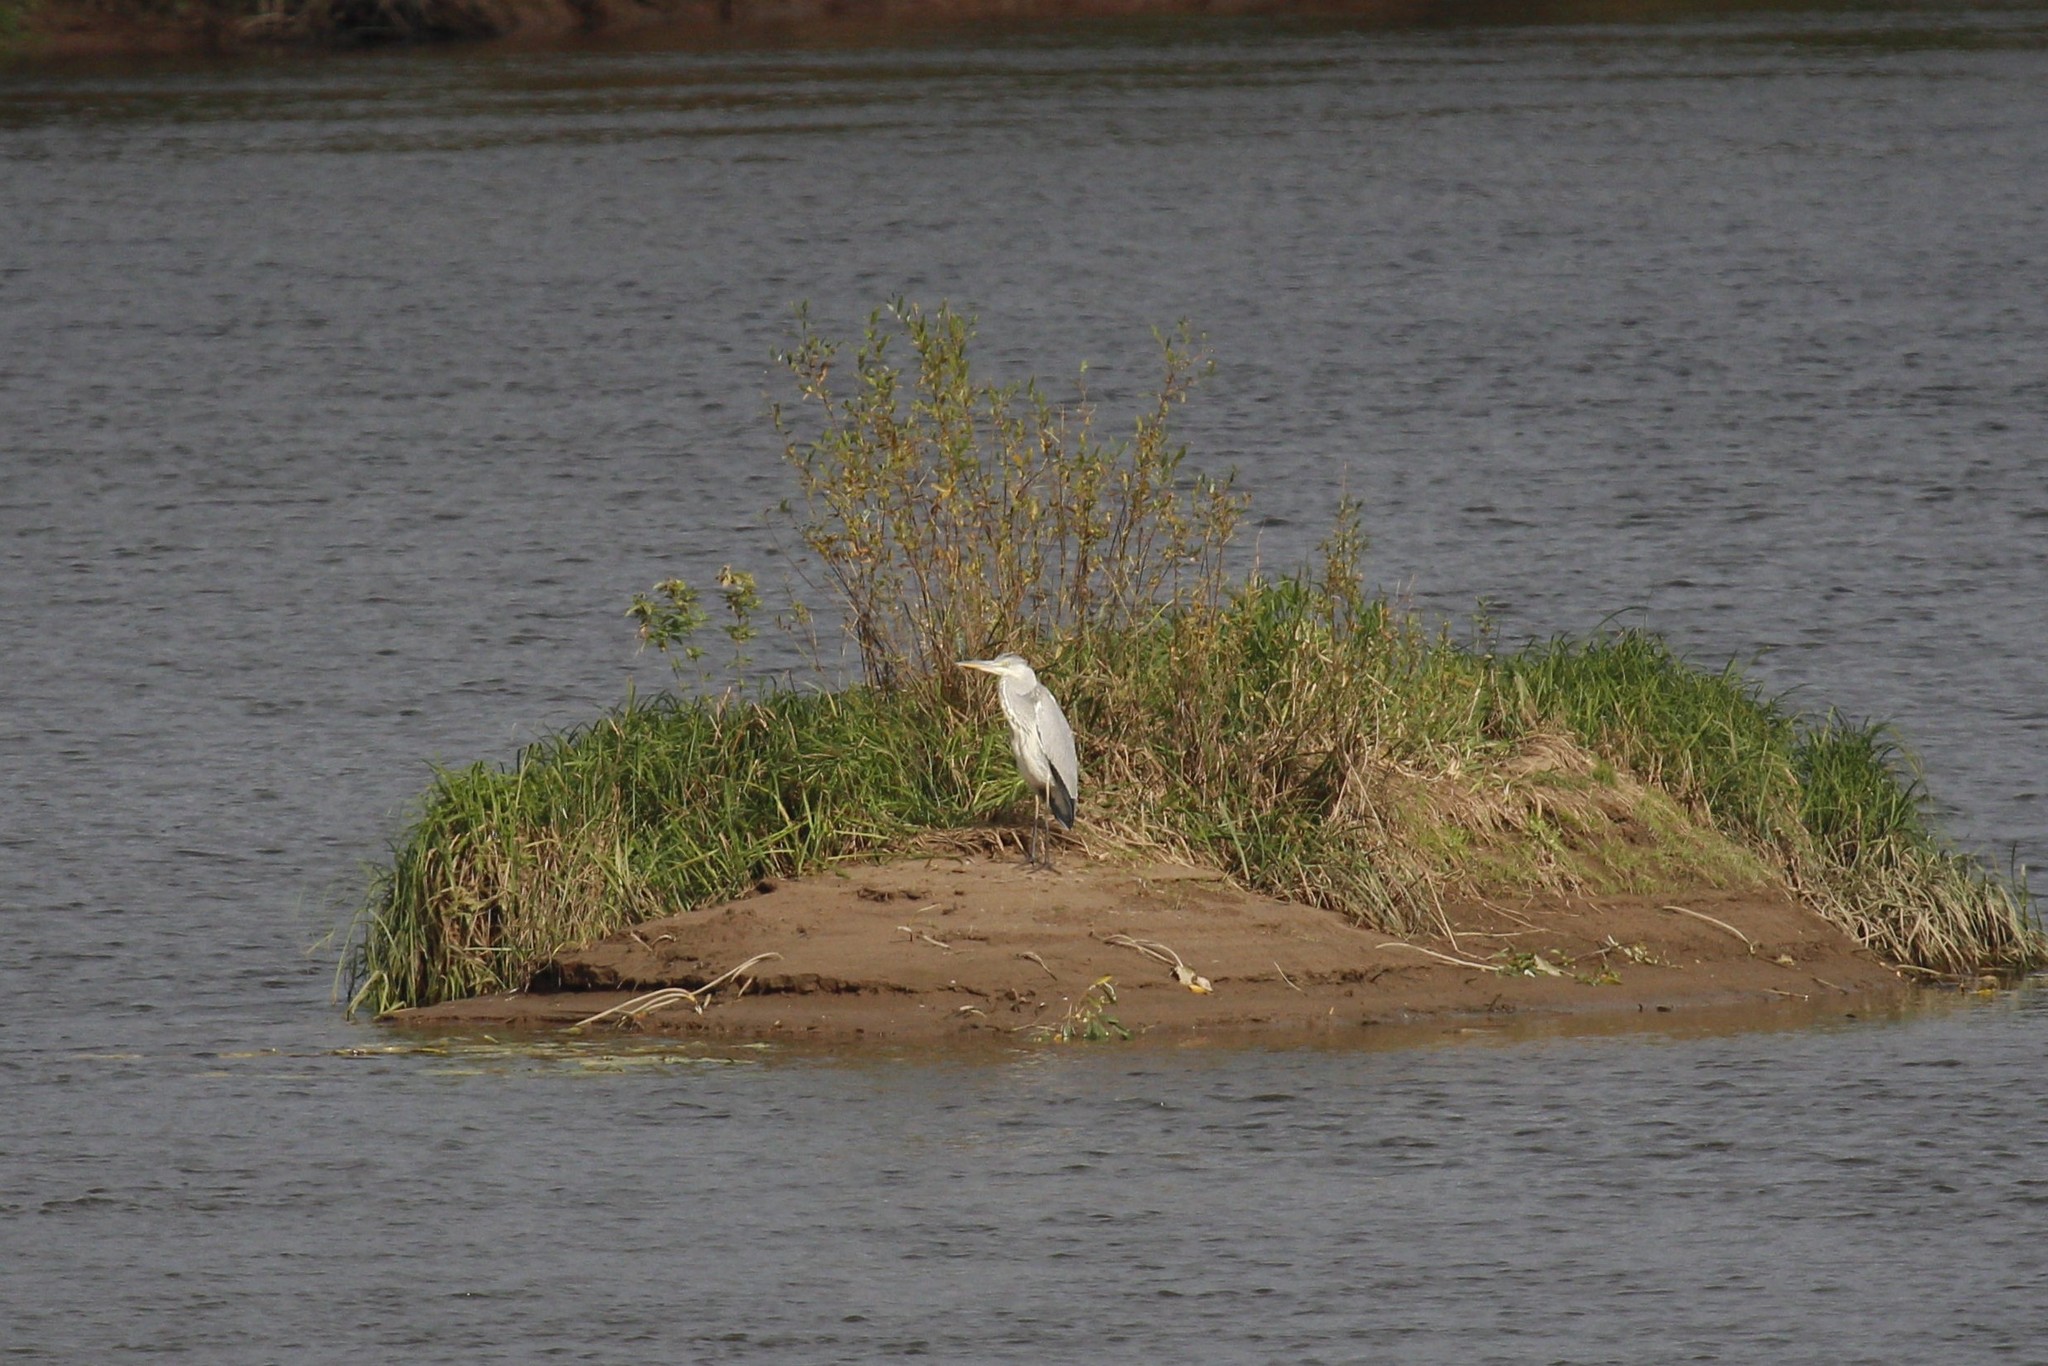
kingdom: Animalia
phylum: Chordata
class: Aves
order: Pelecaniformes
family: Ardeidae
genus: Ardea
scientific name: Ardea cinerea
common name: Grey heron
